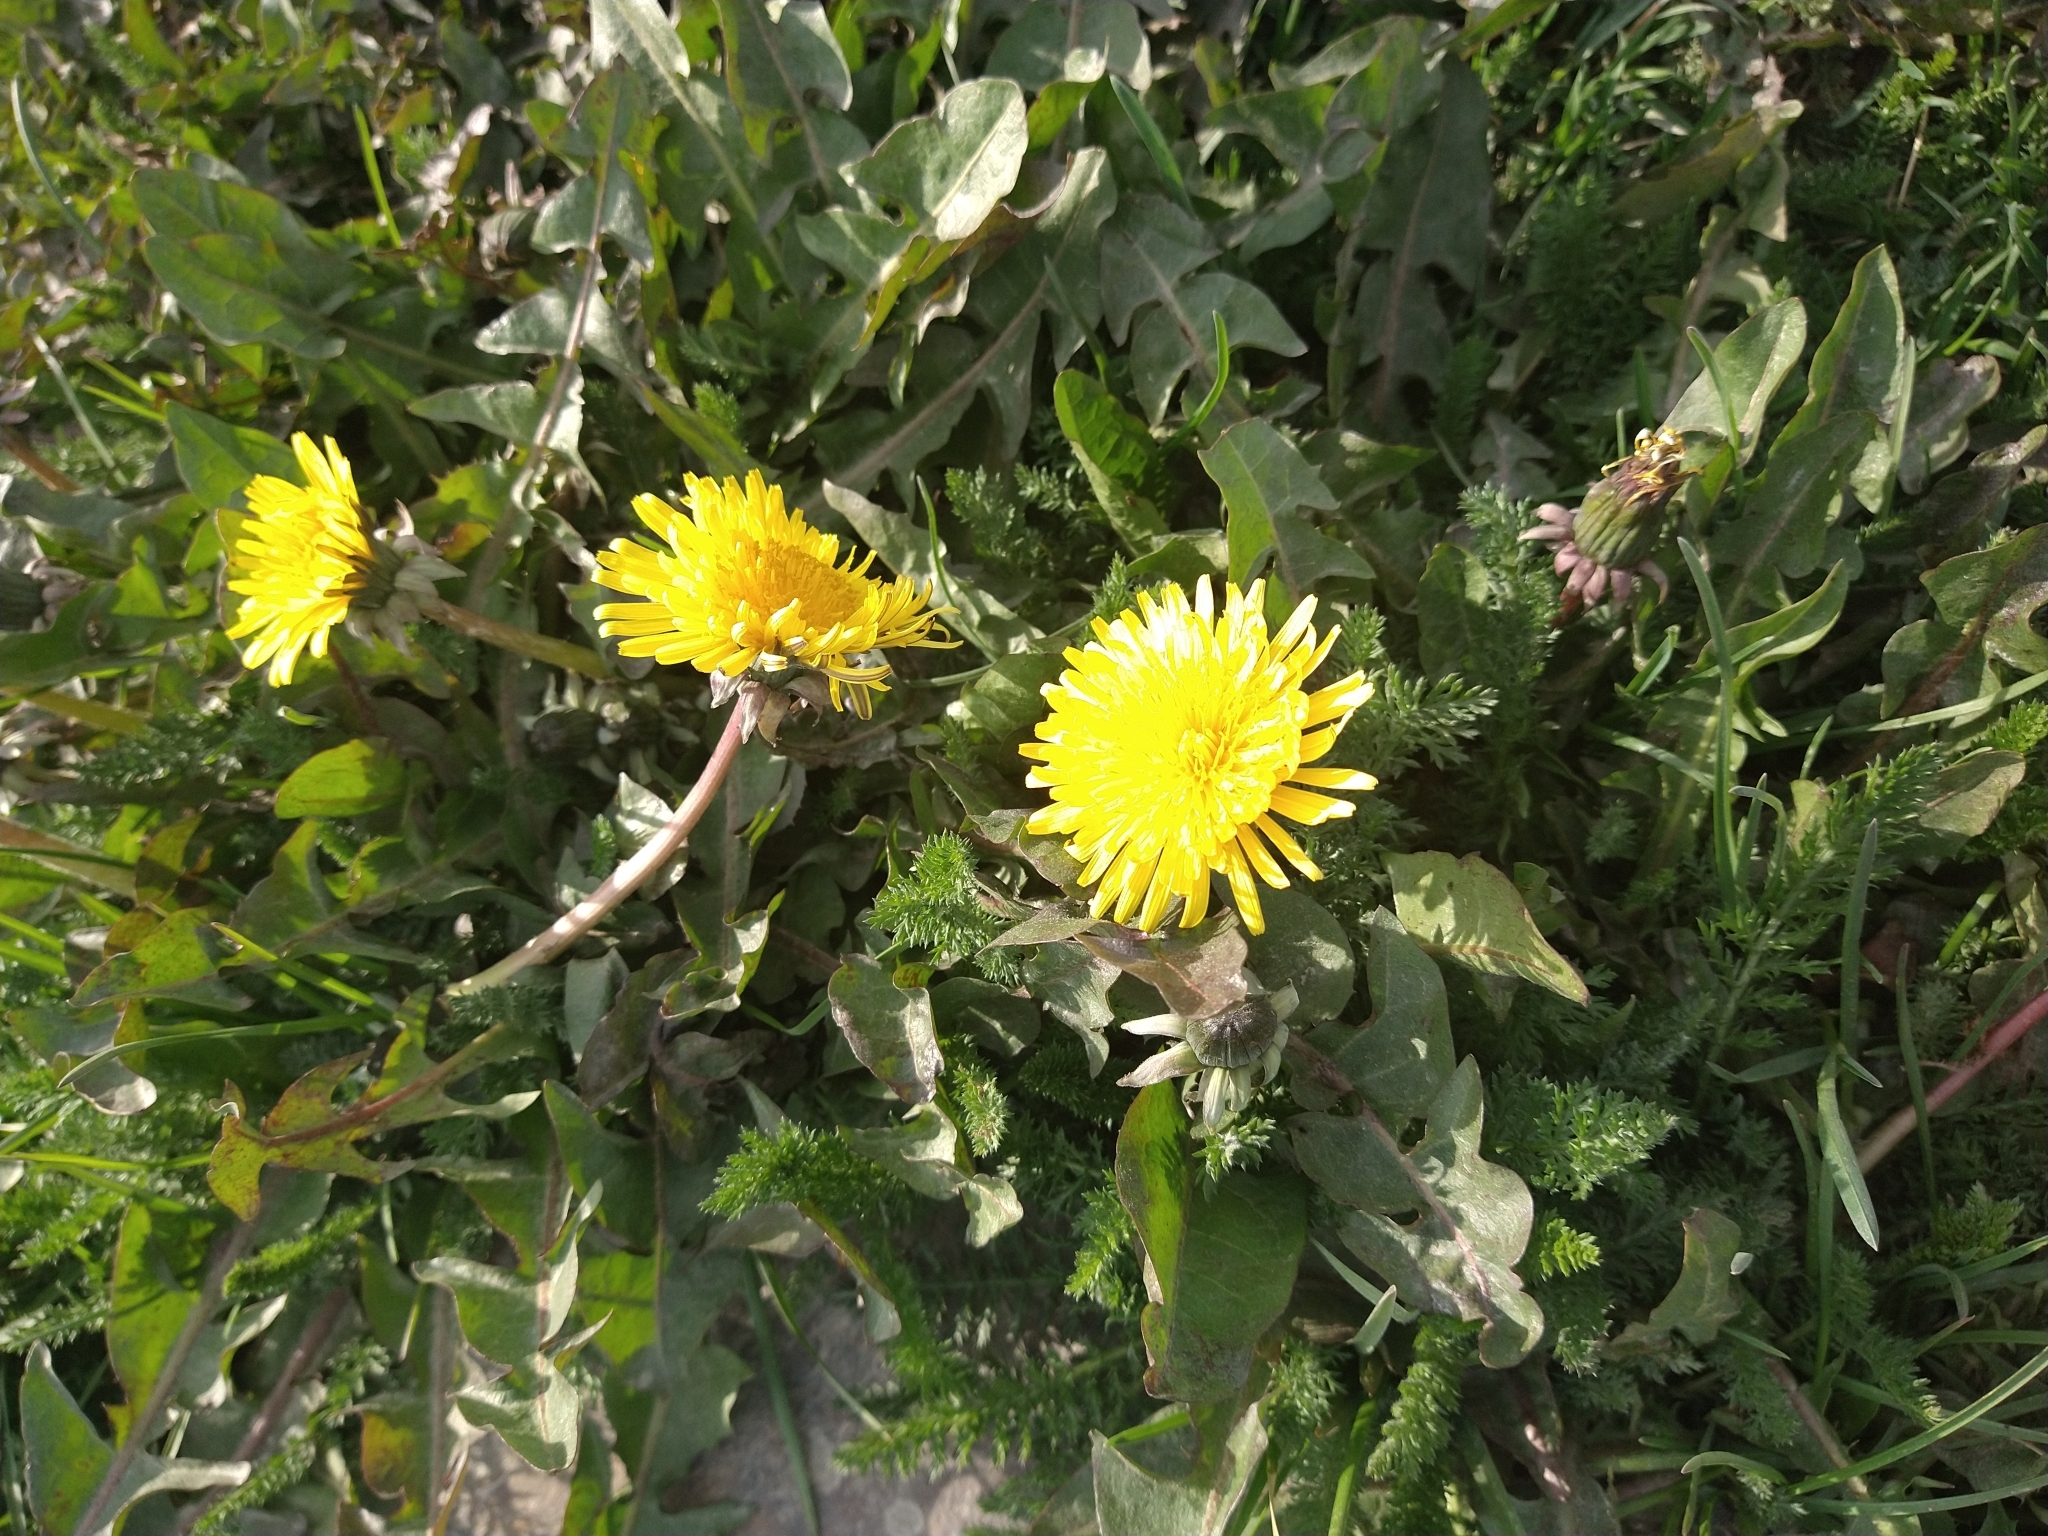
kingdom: Plantae
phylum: Tracheophyta
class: Magnoliopsida
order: Asterales
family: Asteraceae
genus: Taraxacum
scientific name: Taraxacum officinale
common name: Common dandelion
